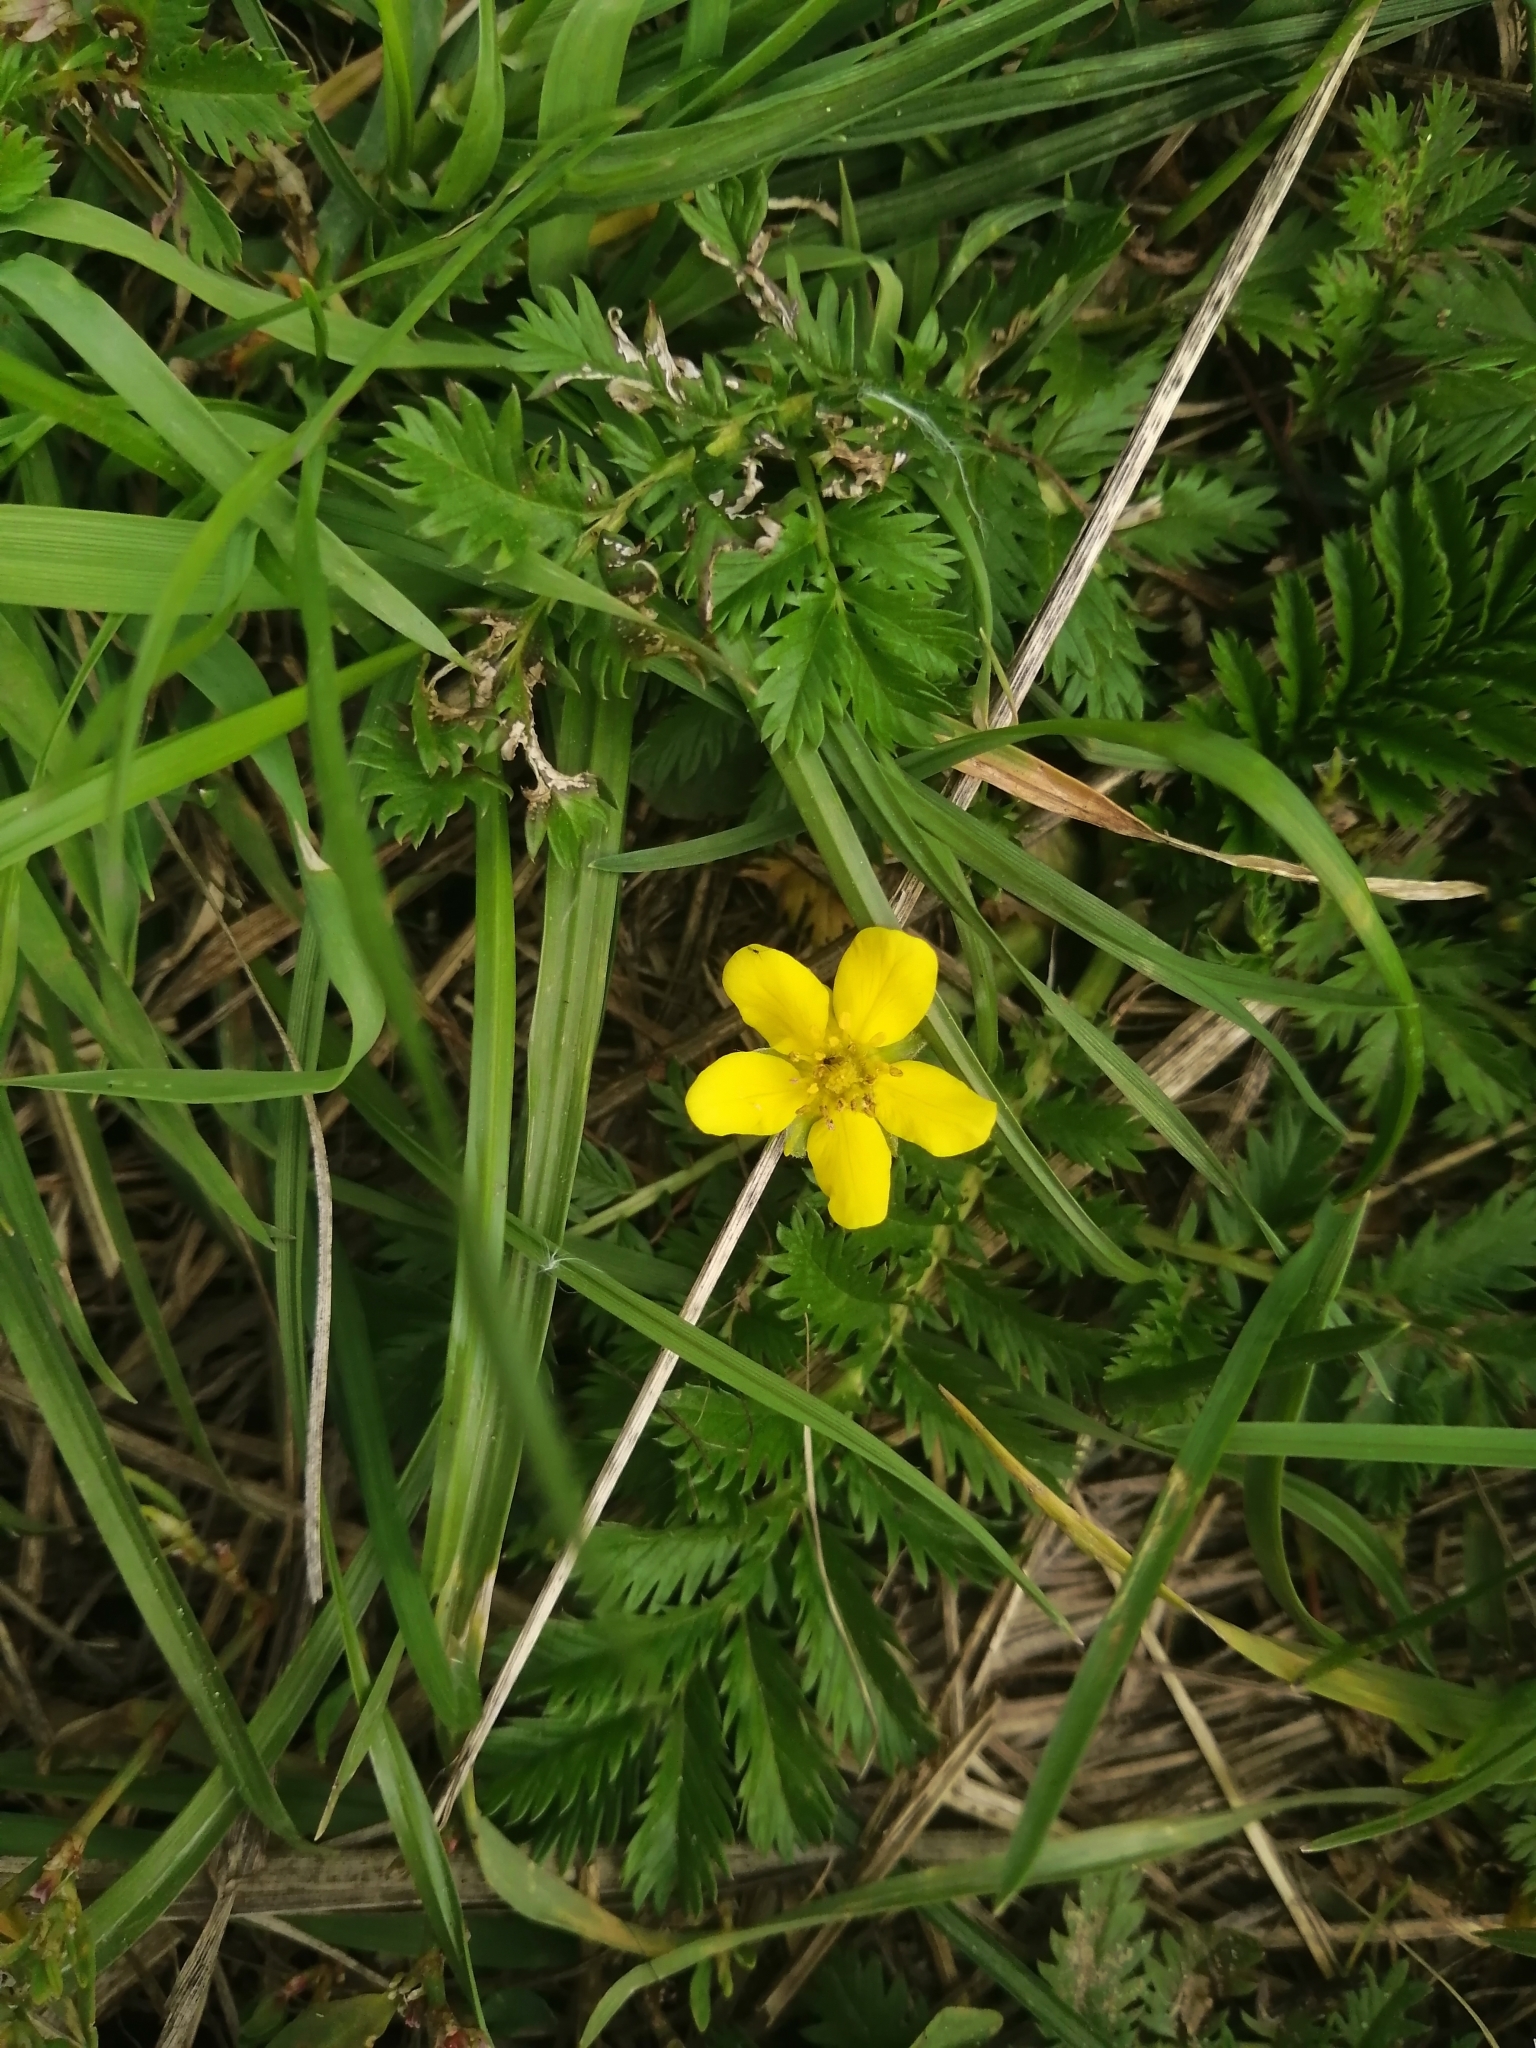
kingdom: Plantae
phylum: Tracheophyta
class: Magnoliopsida
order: Rosales
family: Rosaceae
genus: Argentina
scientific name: Argentina anserina
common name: Common silverweed
